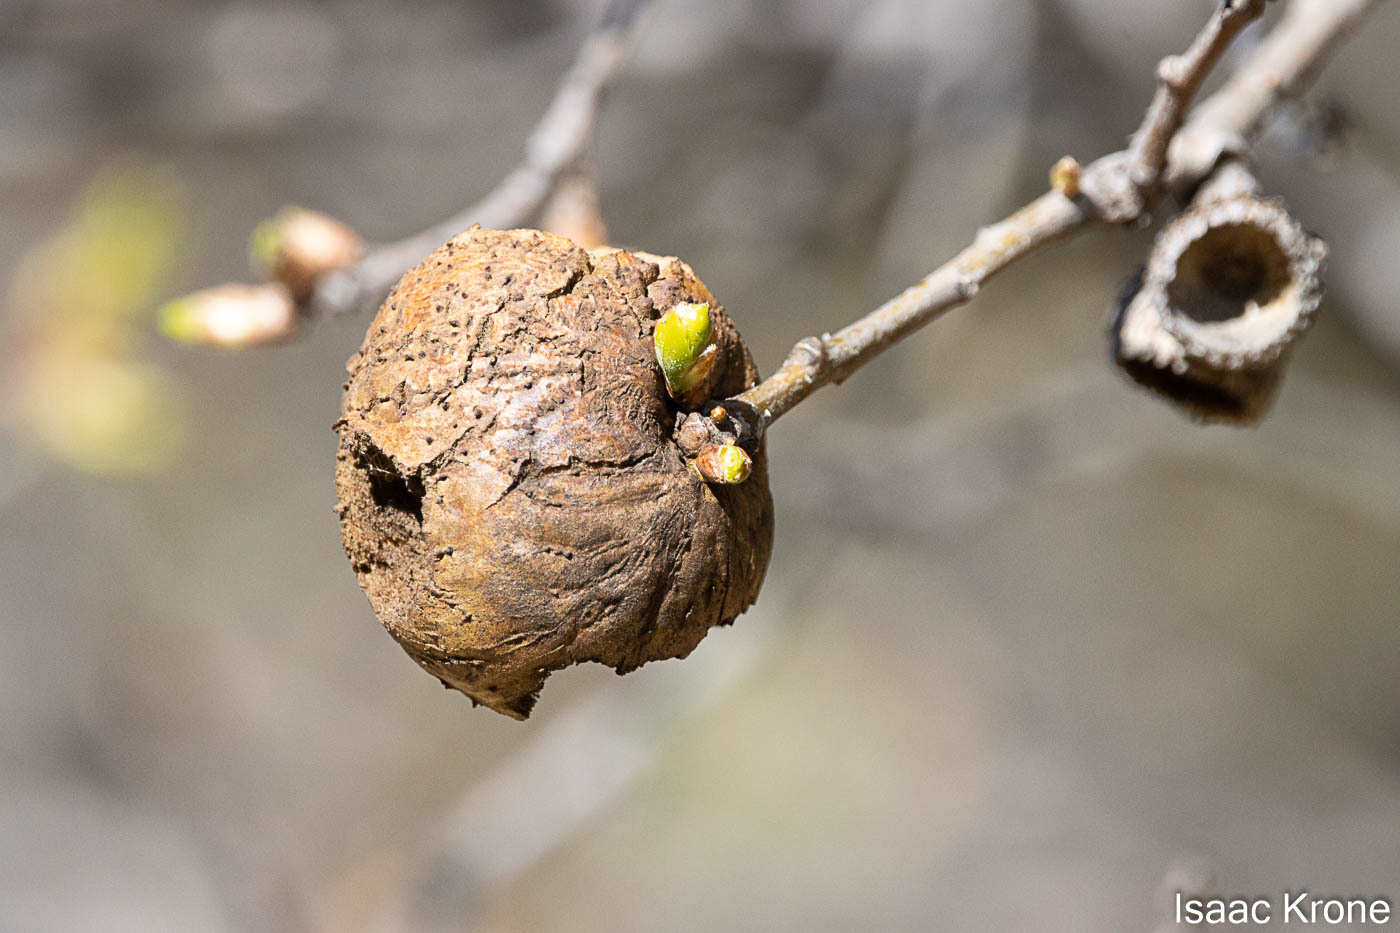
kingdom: Animalia
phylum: Arthropoda
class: Insecta
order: Hymenoptera
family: Cynipidae
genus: Amphibolips
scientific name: Amphibolips quercuspomiformis
